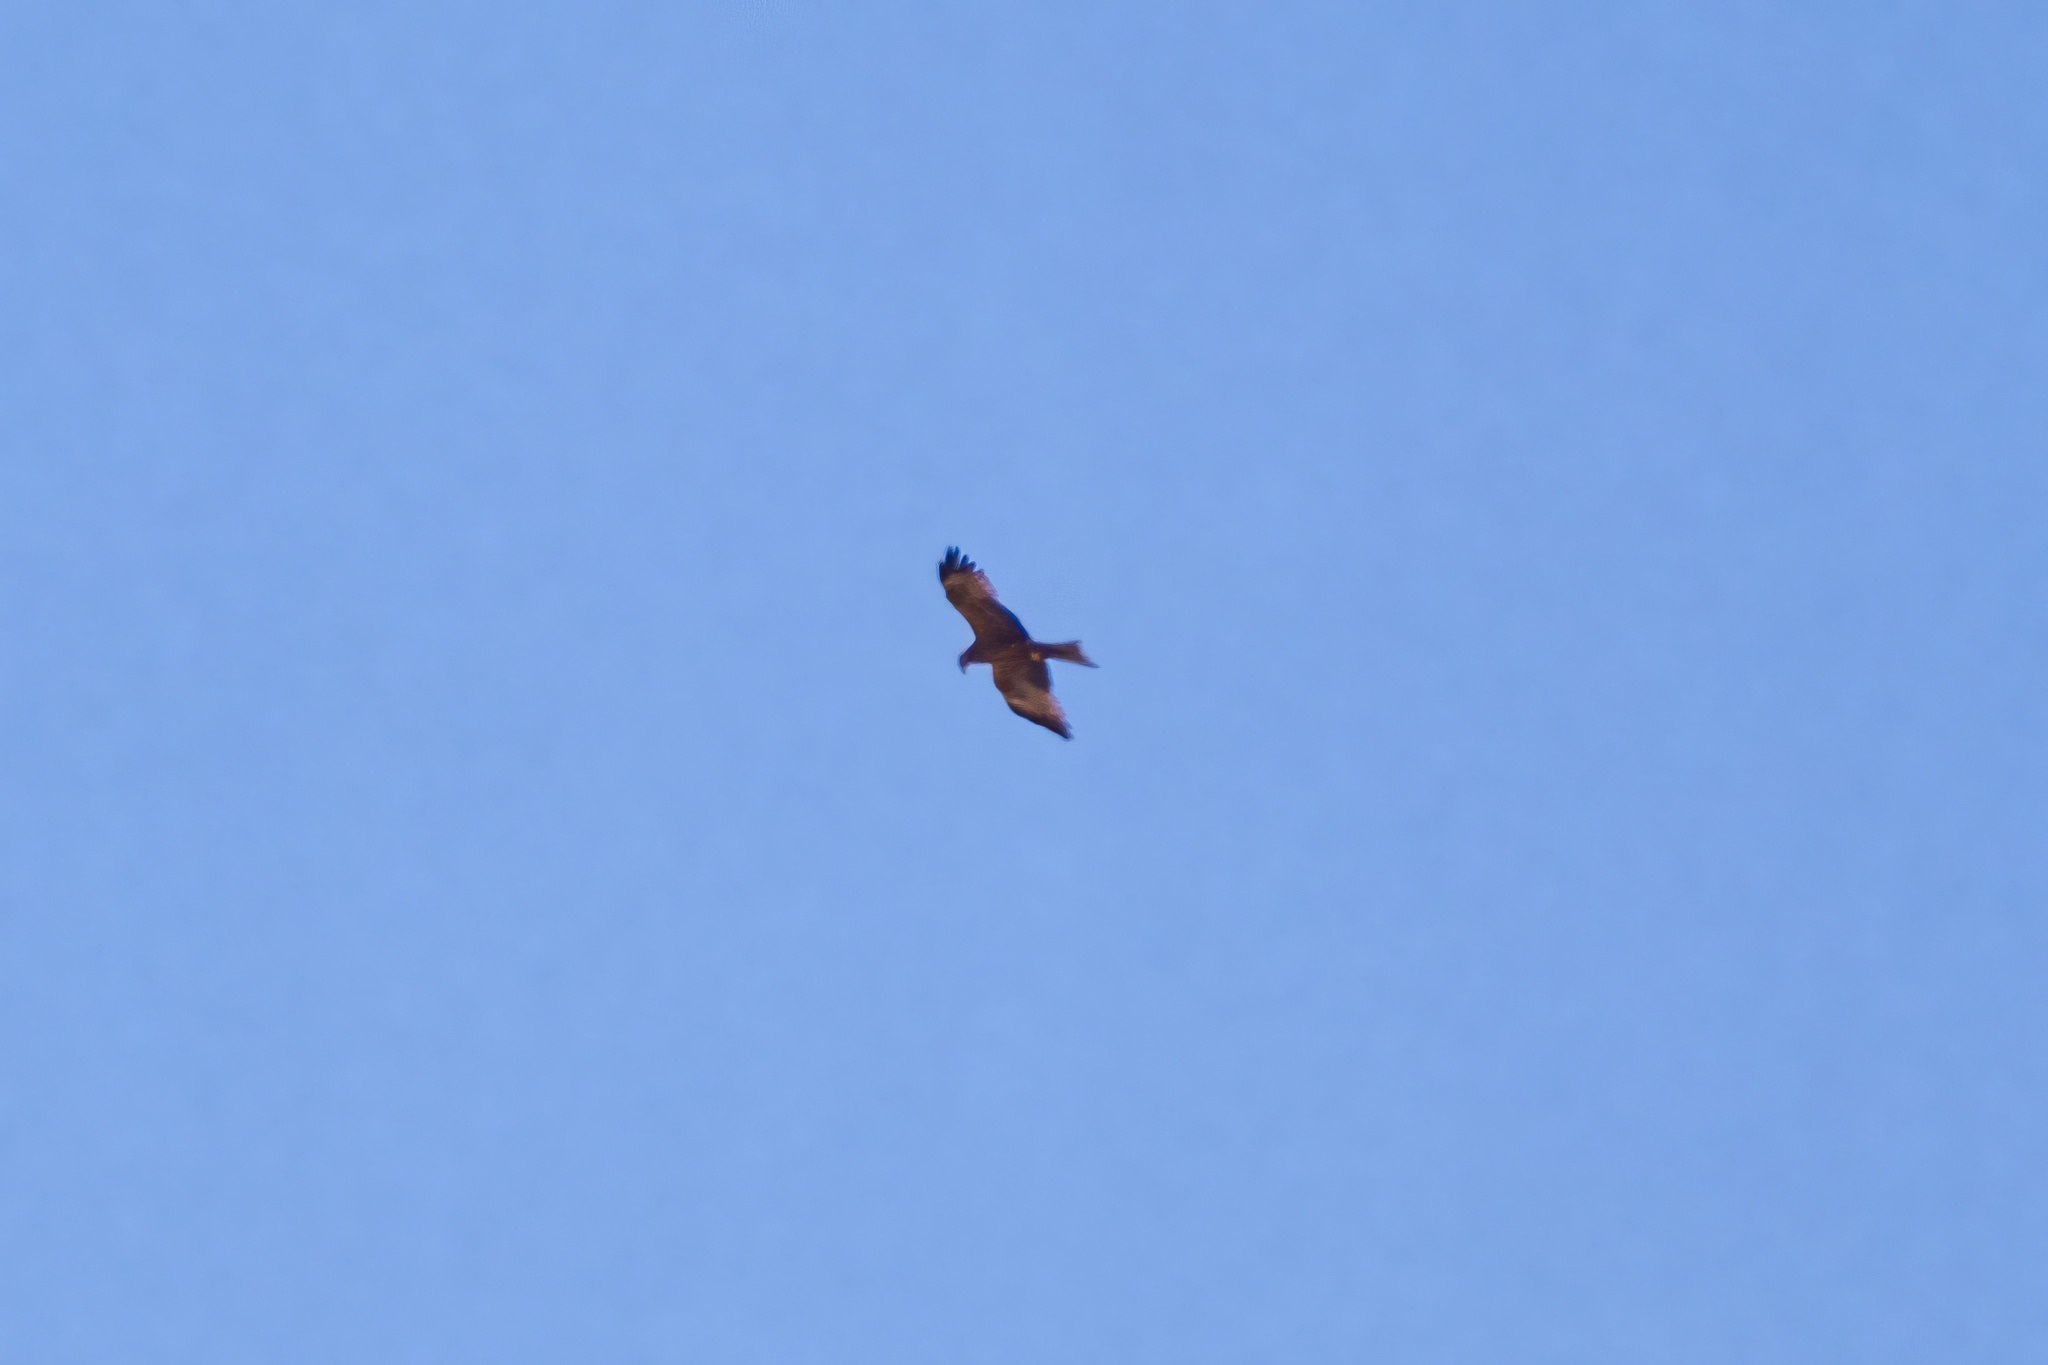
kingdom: Animalia
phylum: Chordata
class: Aves
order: Accipitriformes
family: Accipitridae
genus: Milvus
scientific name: Milvus migrans
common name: Black kite
